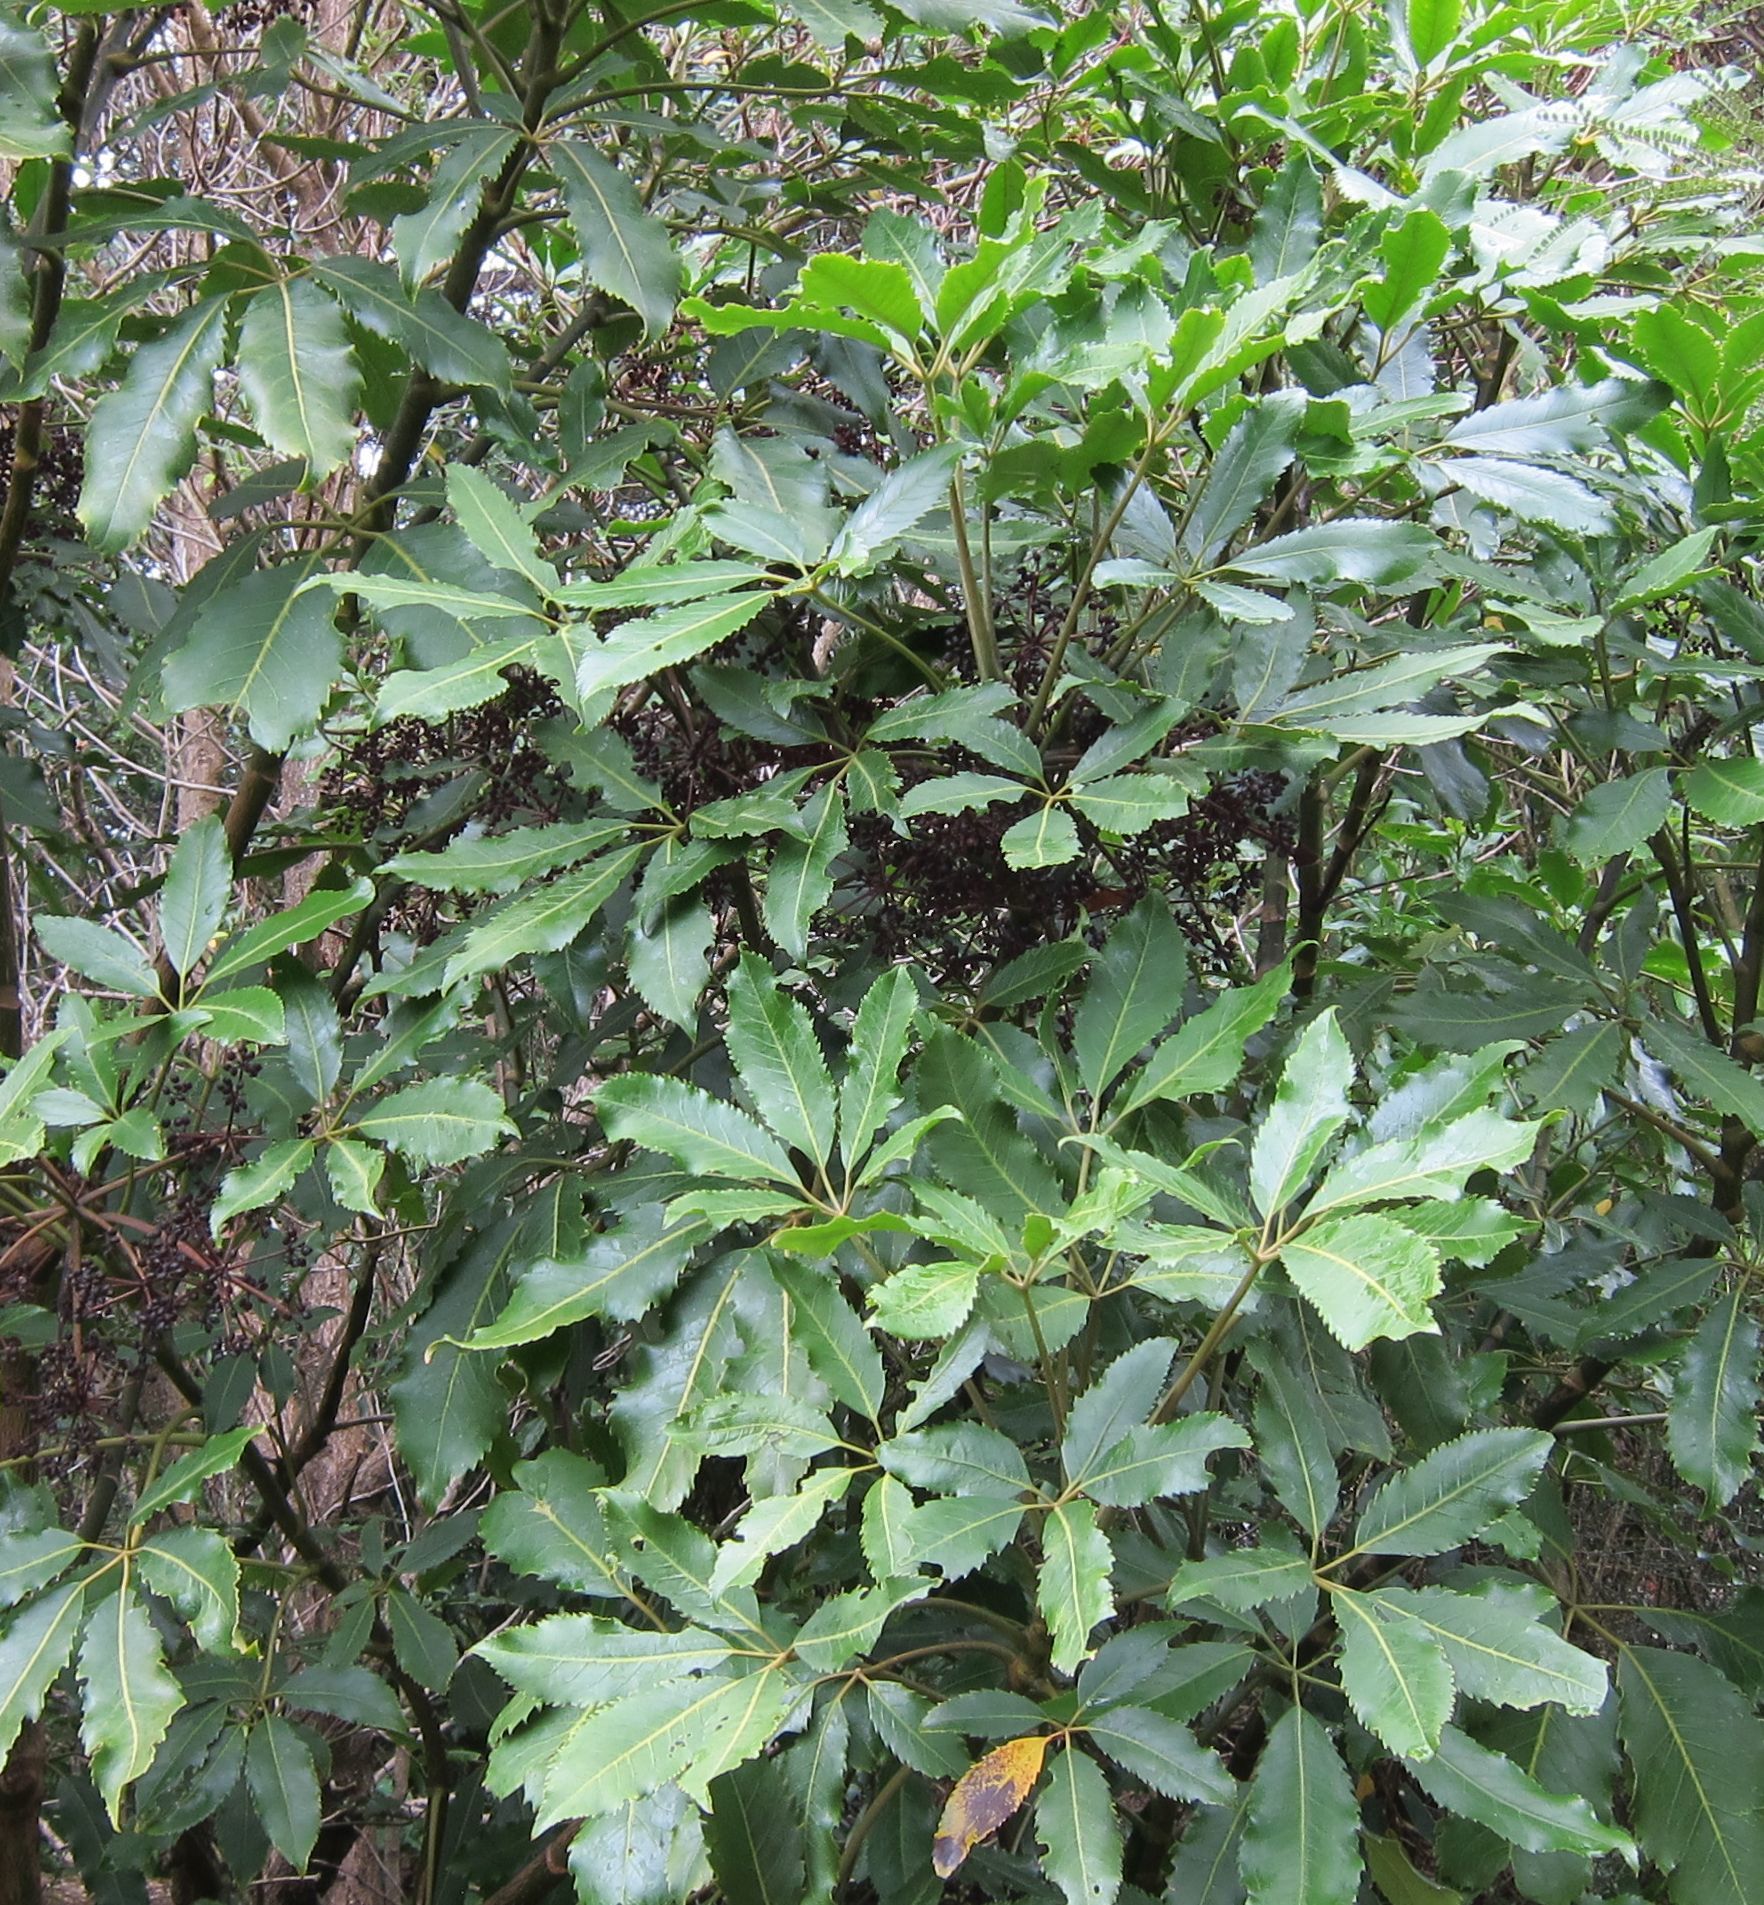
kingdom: Plantae
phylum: Tracheophyta
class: Magnoliopsida
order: Apiales
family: Araliaceae
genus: Neopanax
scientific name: Neopanax arboreus
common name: Five-fingers
